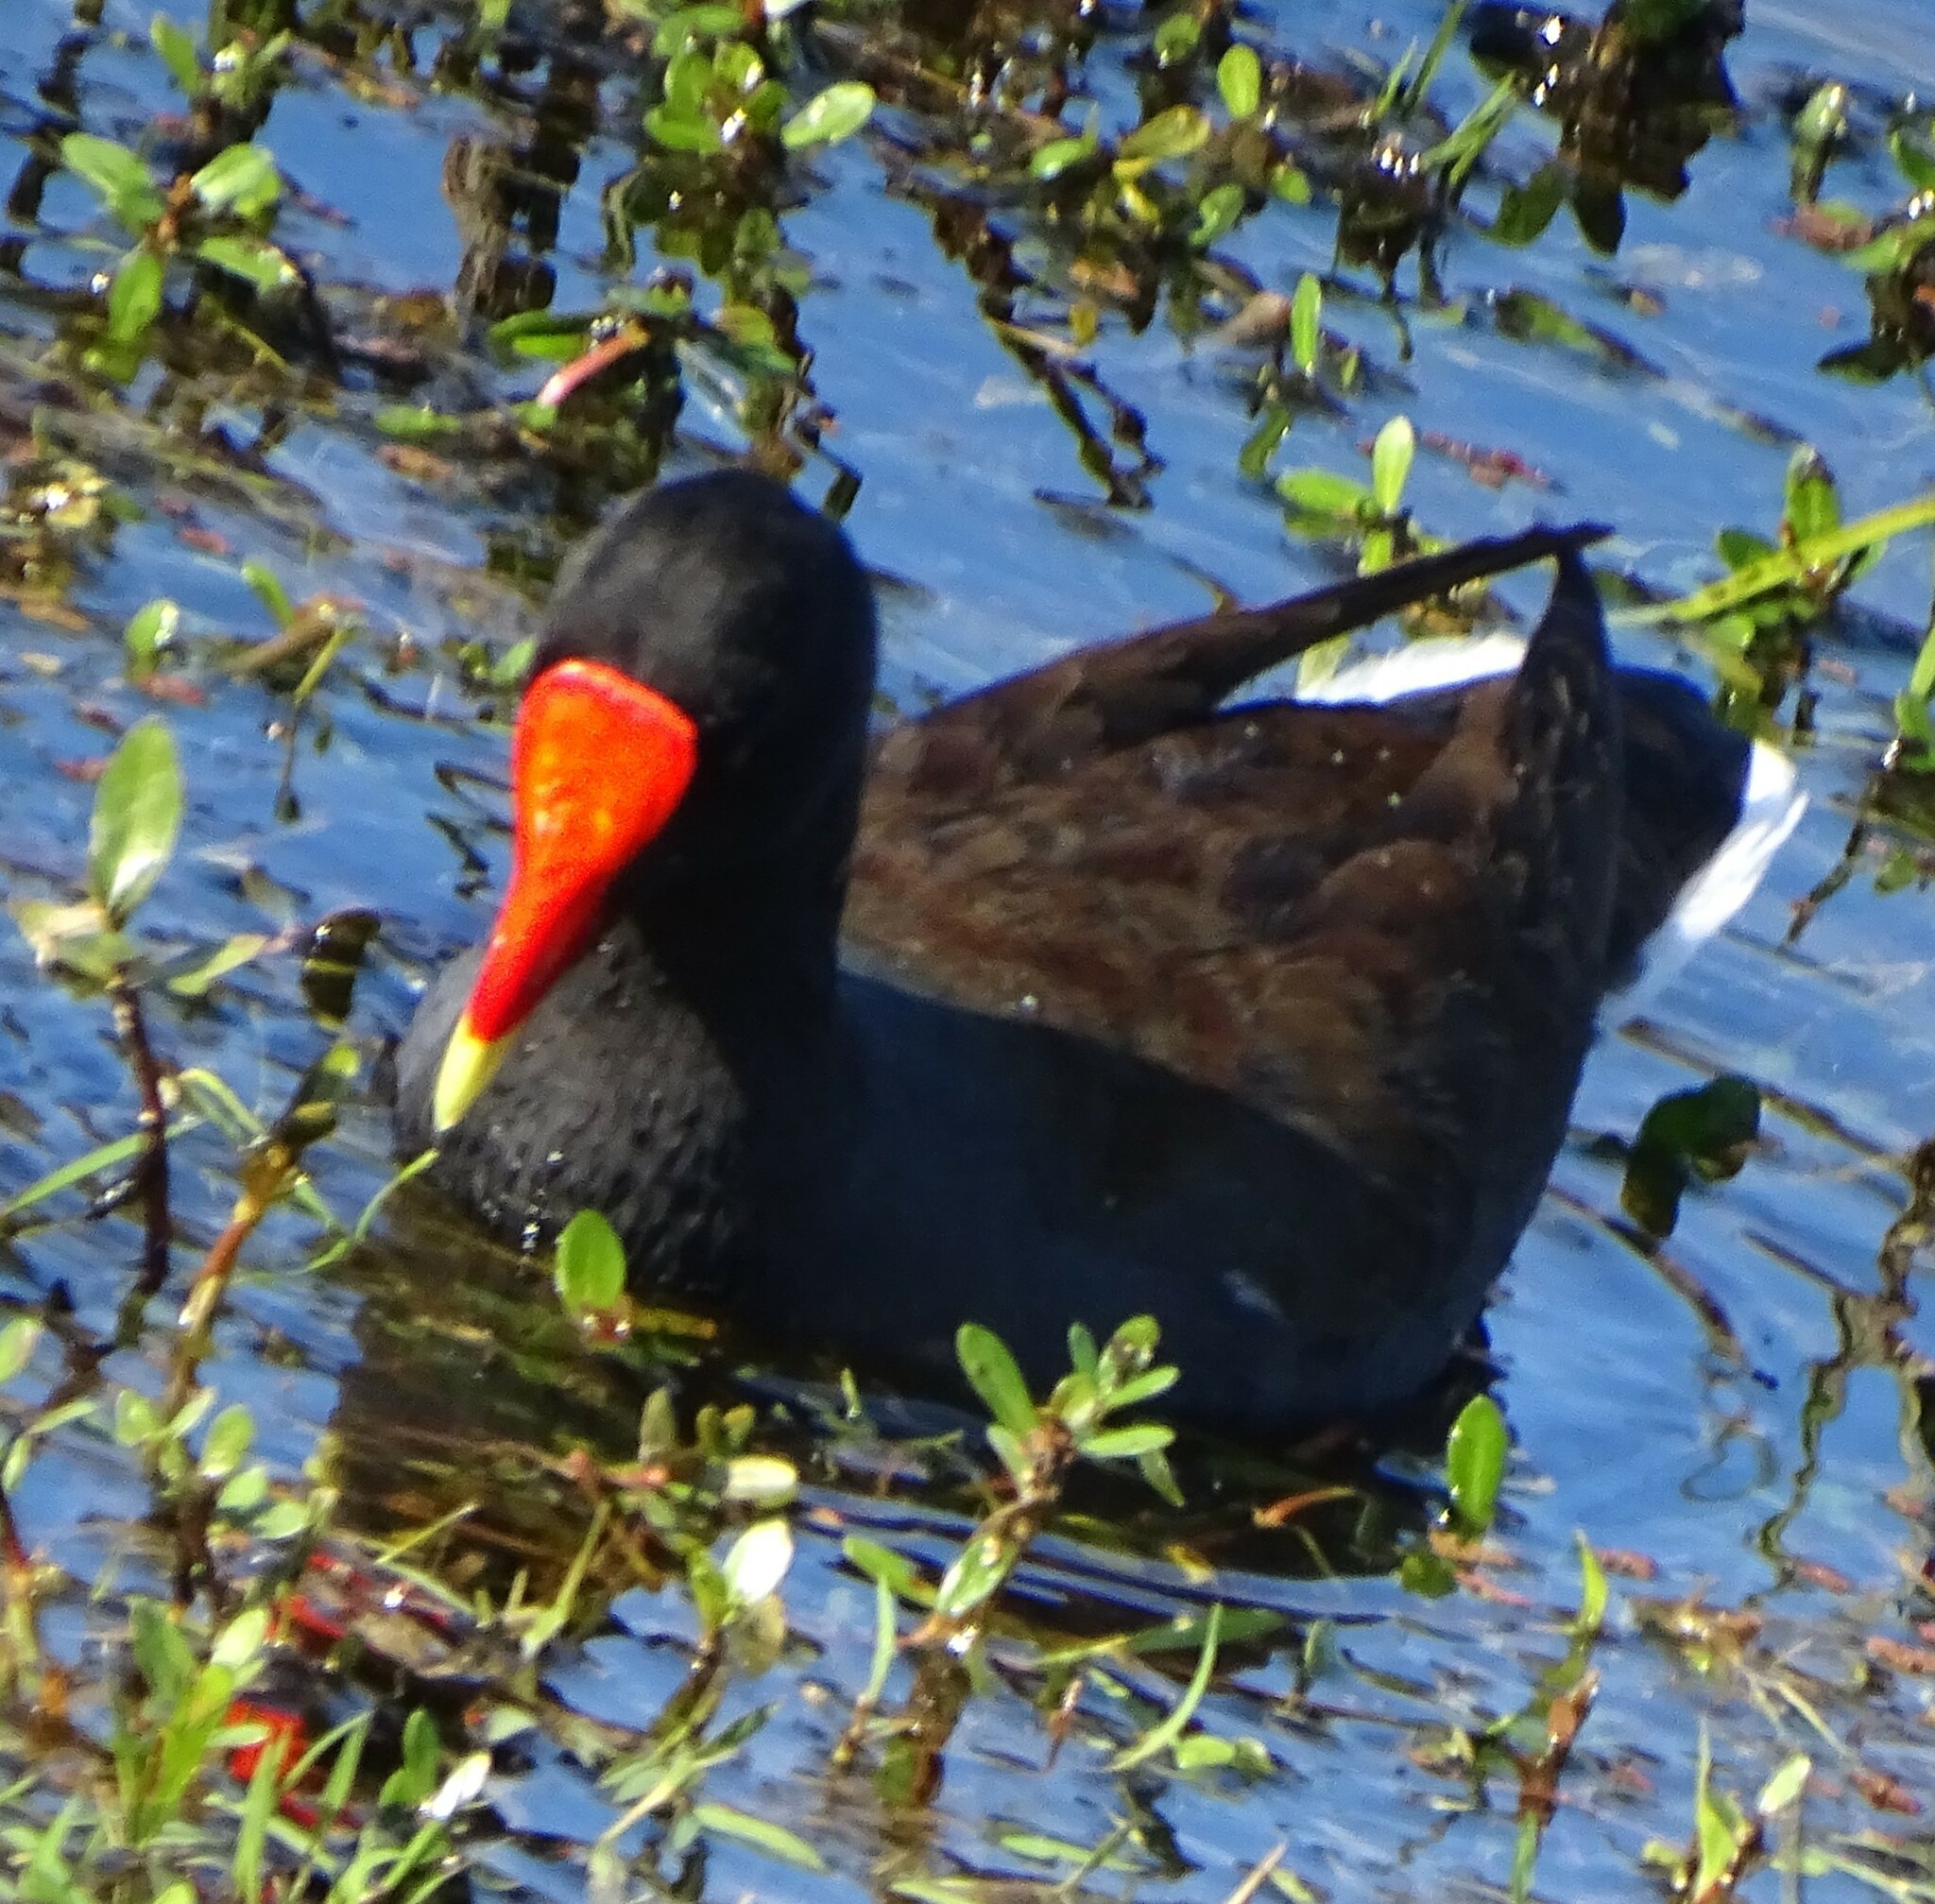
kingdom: Animalia
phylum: Chordata
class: Aves
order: Gruiformes
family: Rallidae
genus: Gallinula
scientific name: Gallinula chloropus
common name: Common moorhen
